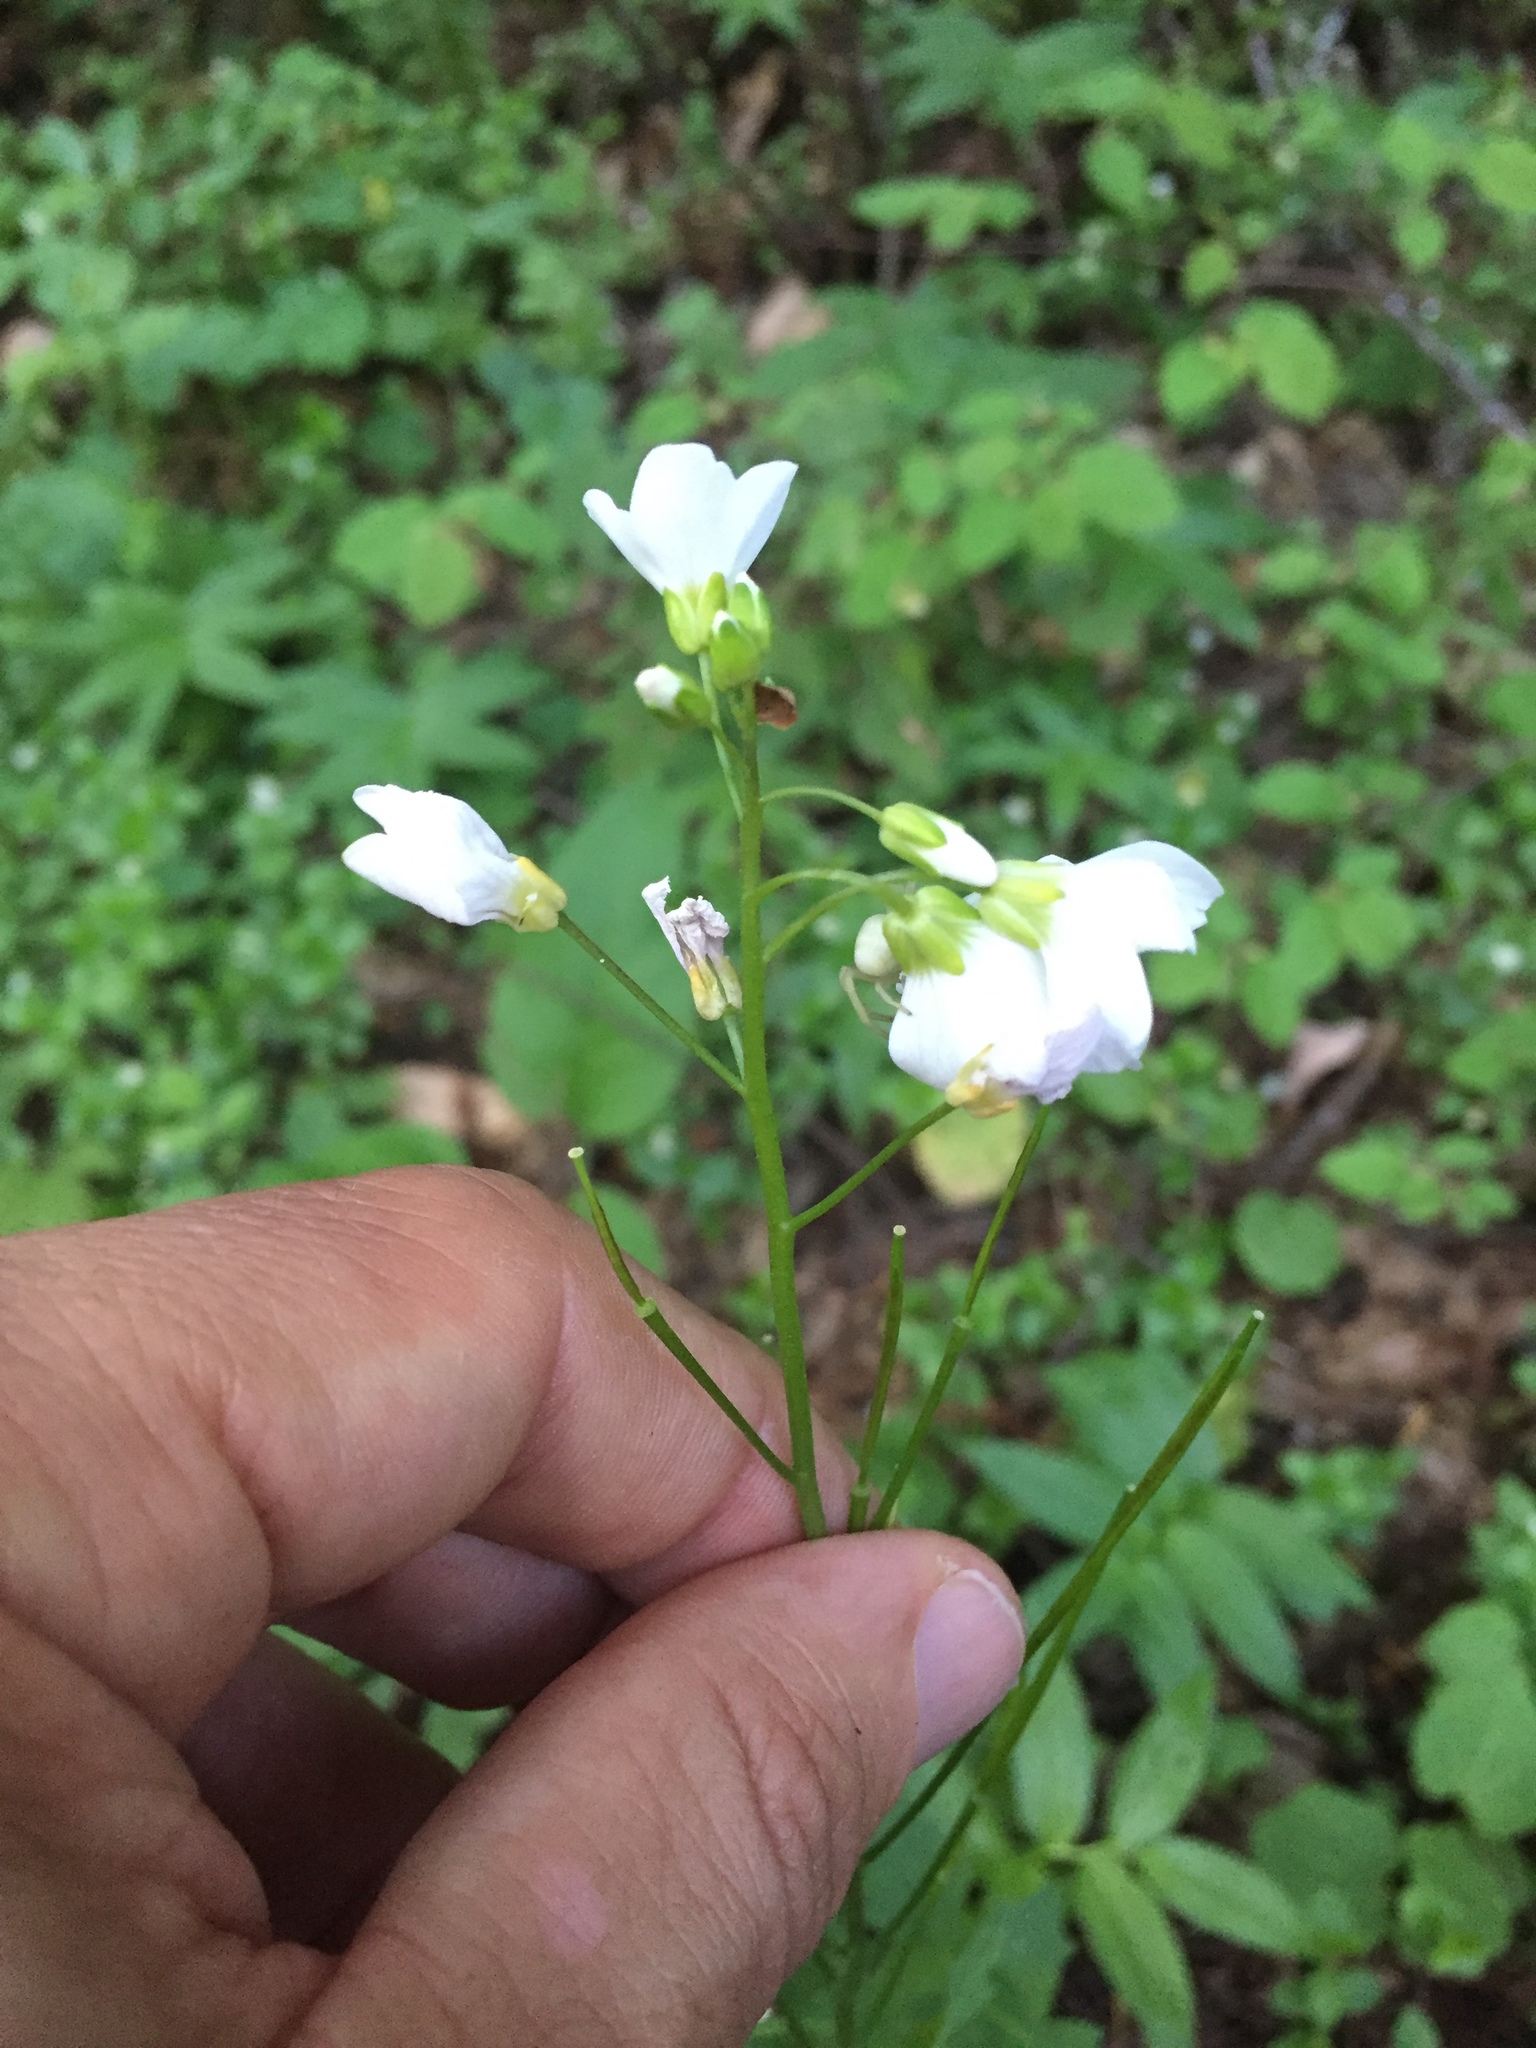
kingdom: Plantae
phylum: Tracheophyta
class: Magnoliopsida
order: Brassicales
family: Brassicaceae
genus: Cardamine
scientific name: Cardamine californica
